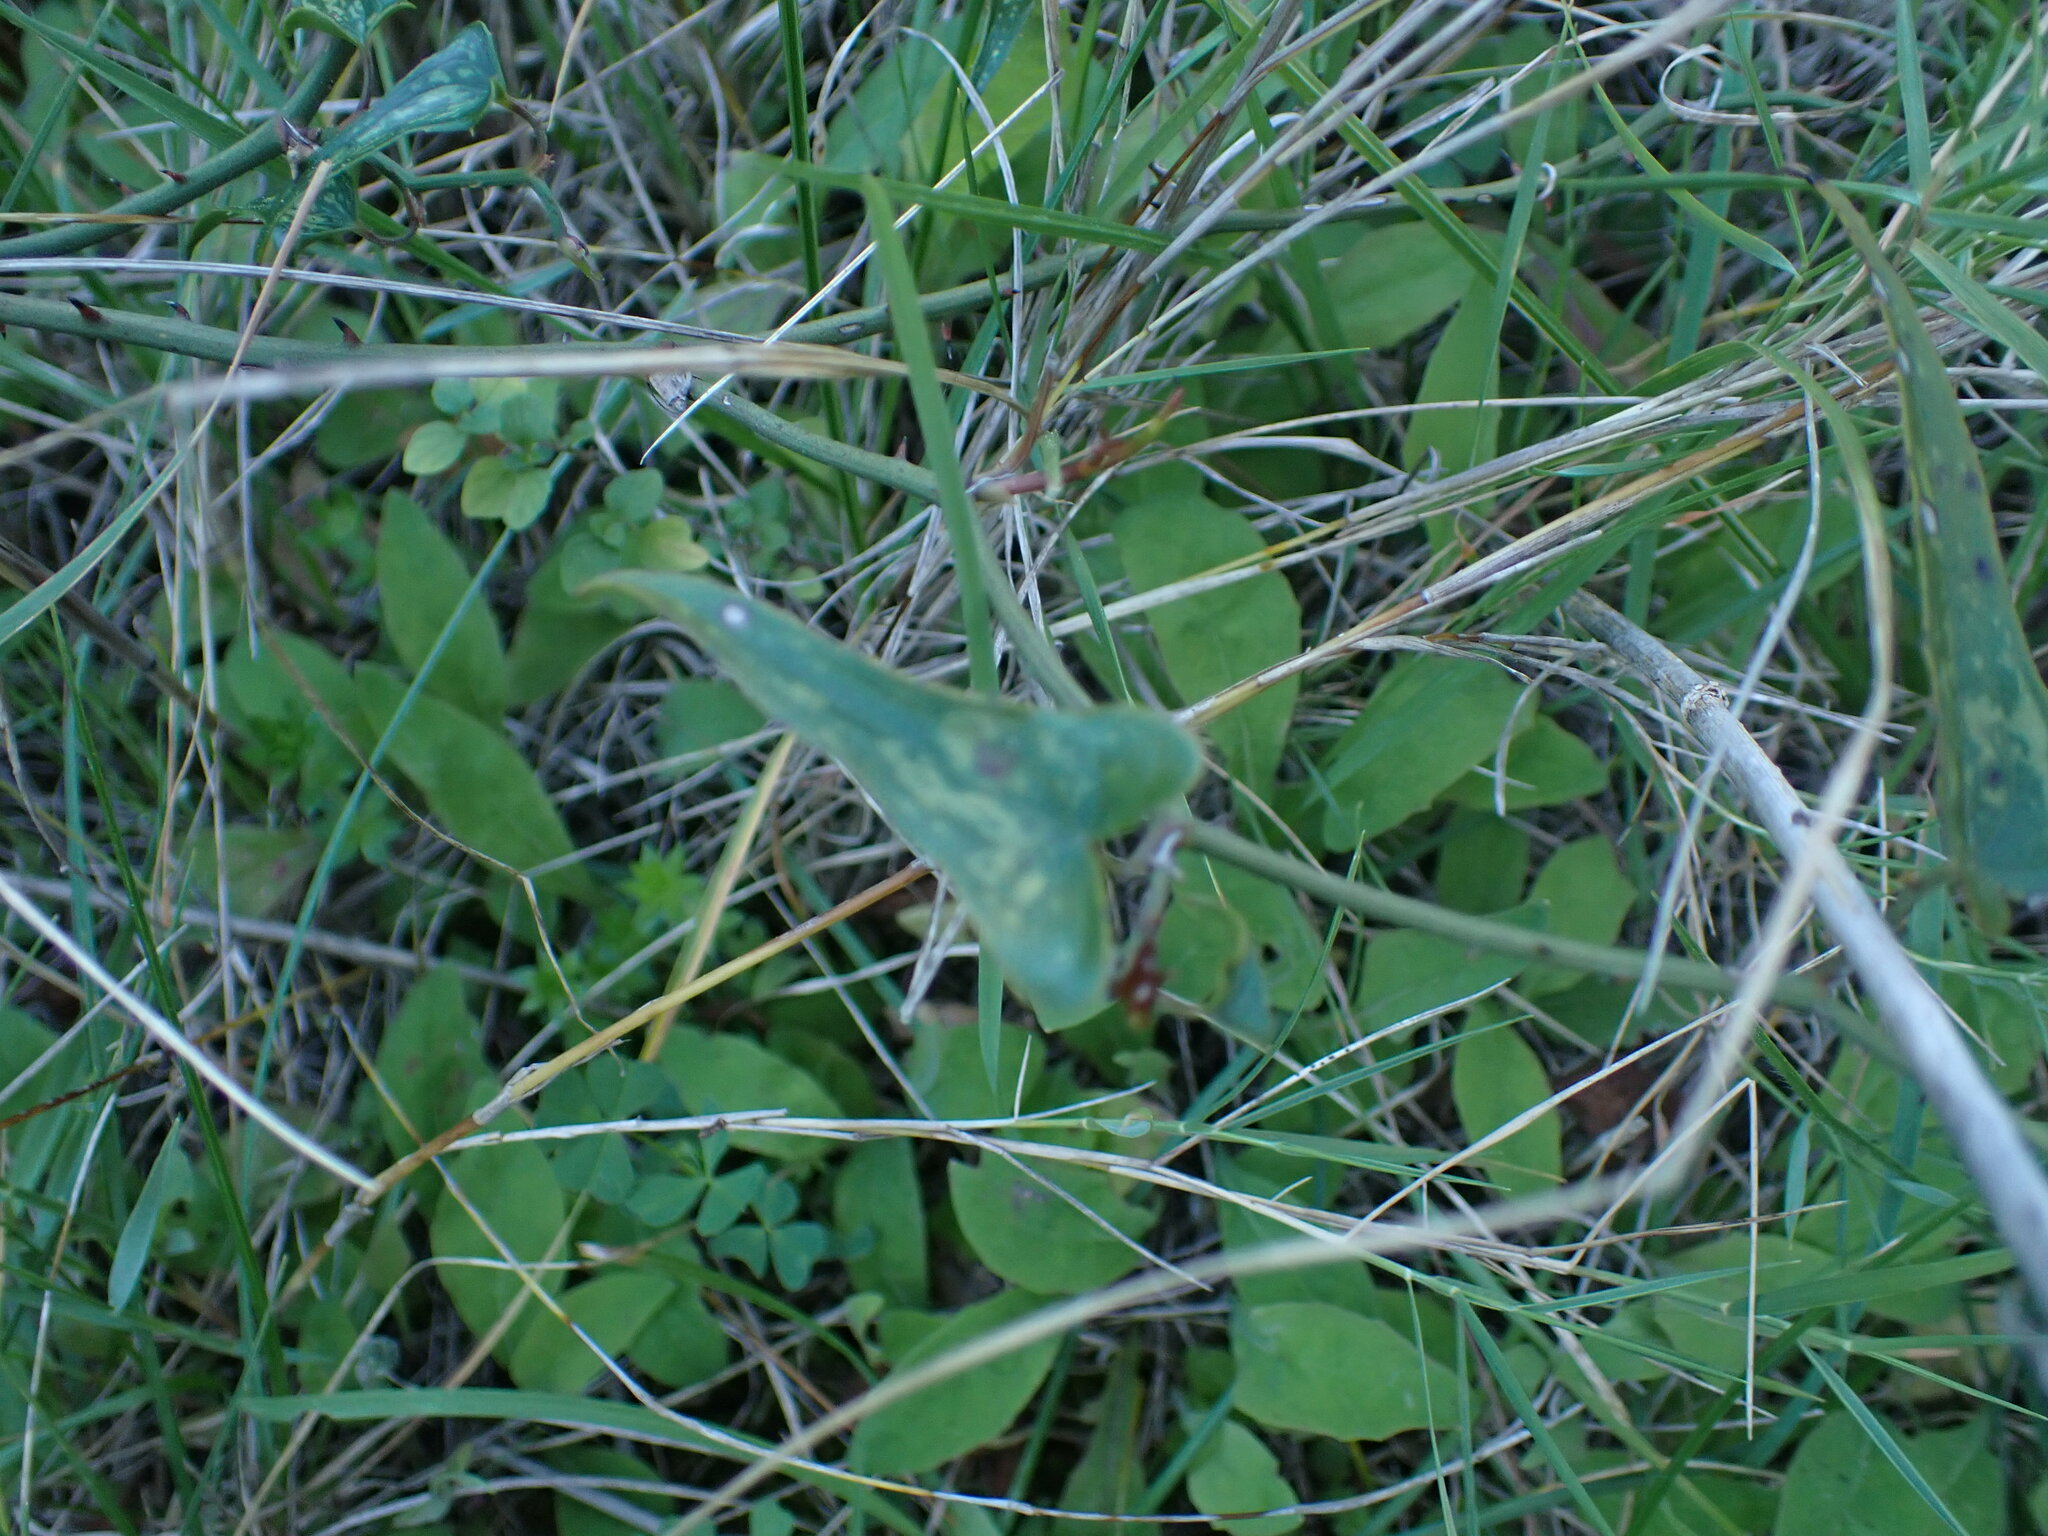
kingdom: Plantae
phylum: Tracheophyta
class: Liliopsida
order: Liliales
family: Smilacaceae
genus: Smilax
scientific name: Smilax aspera
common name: Common smilax
